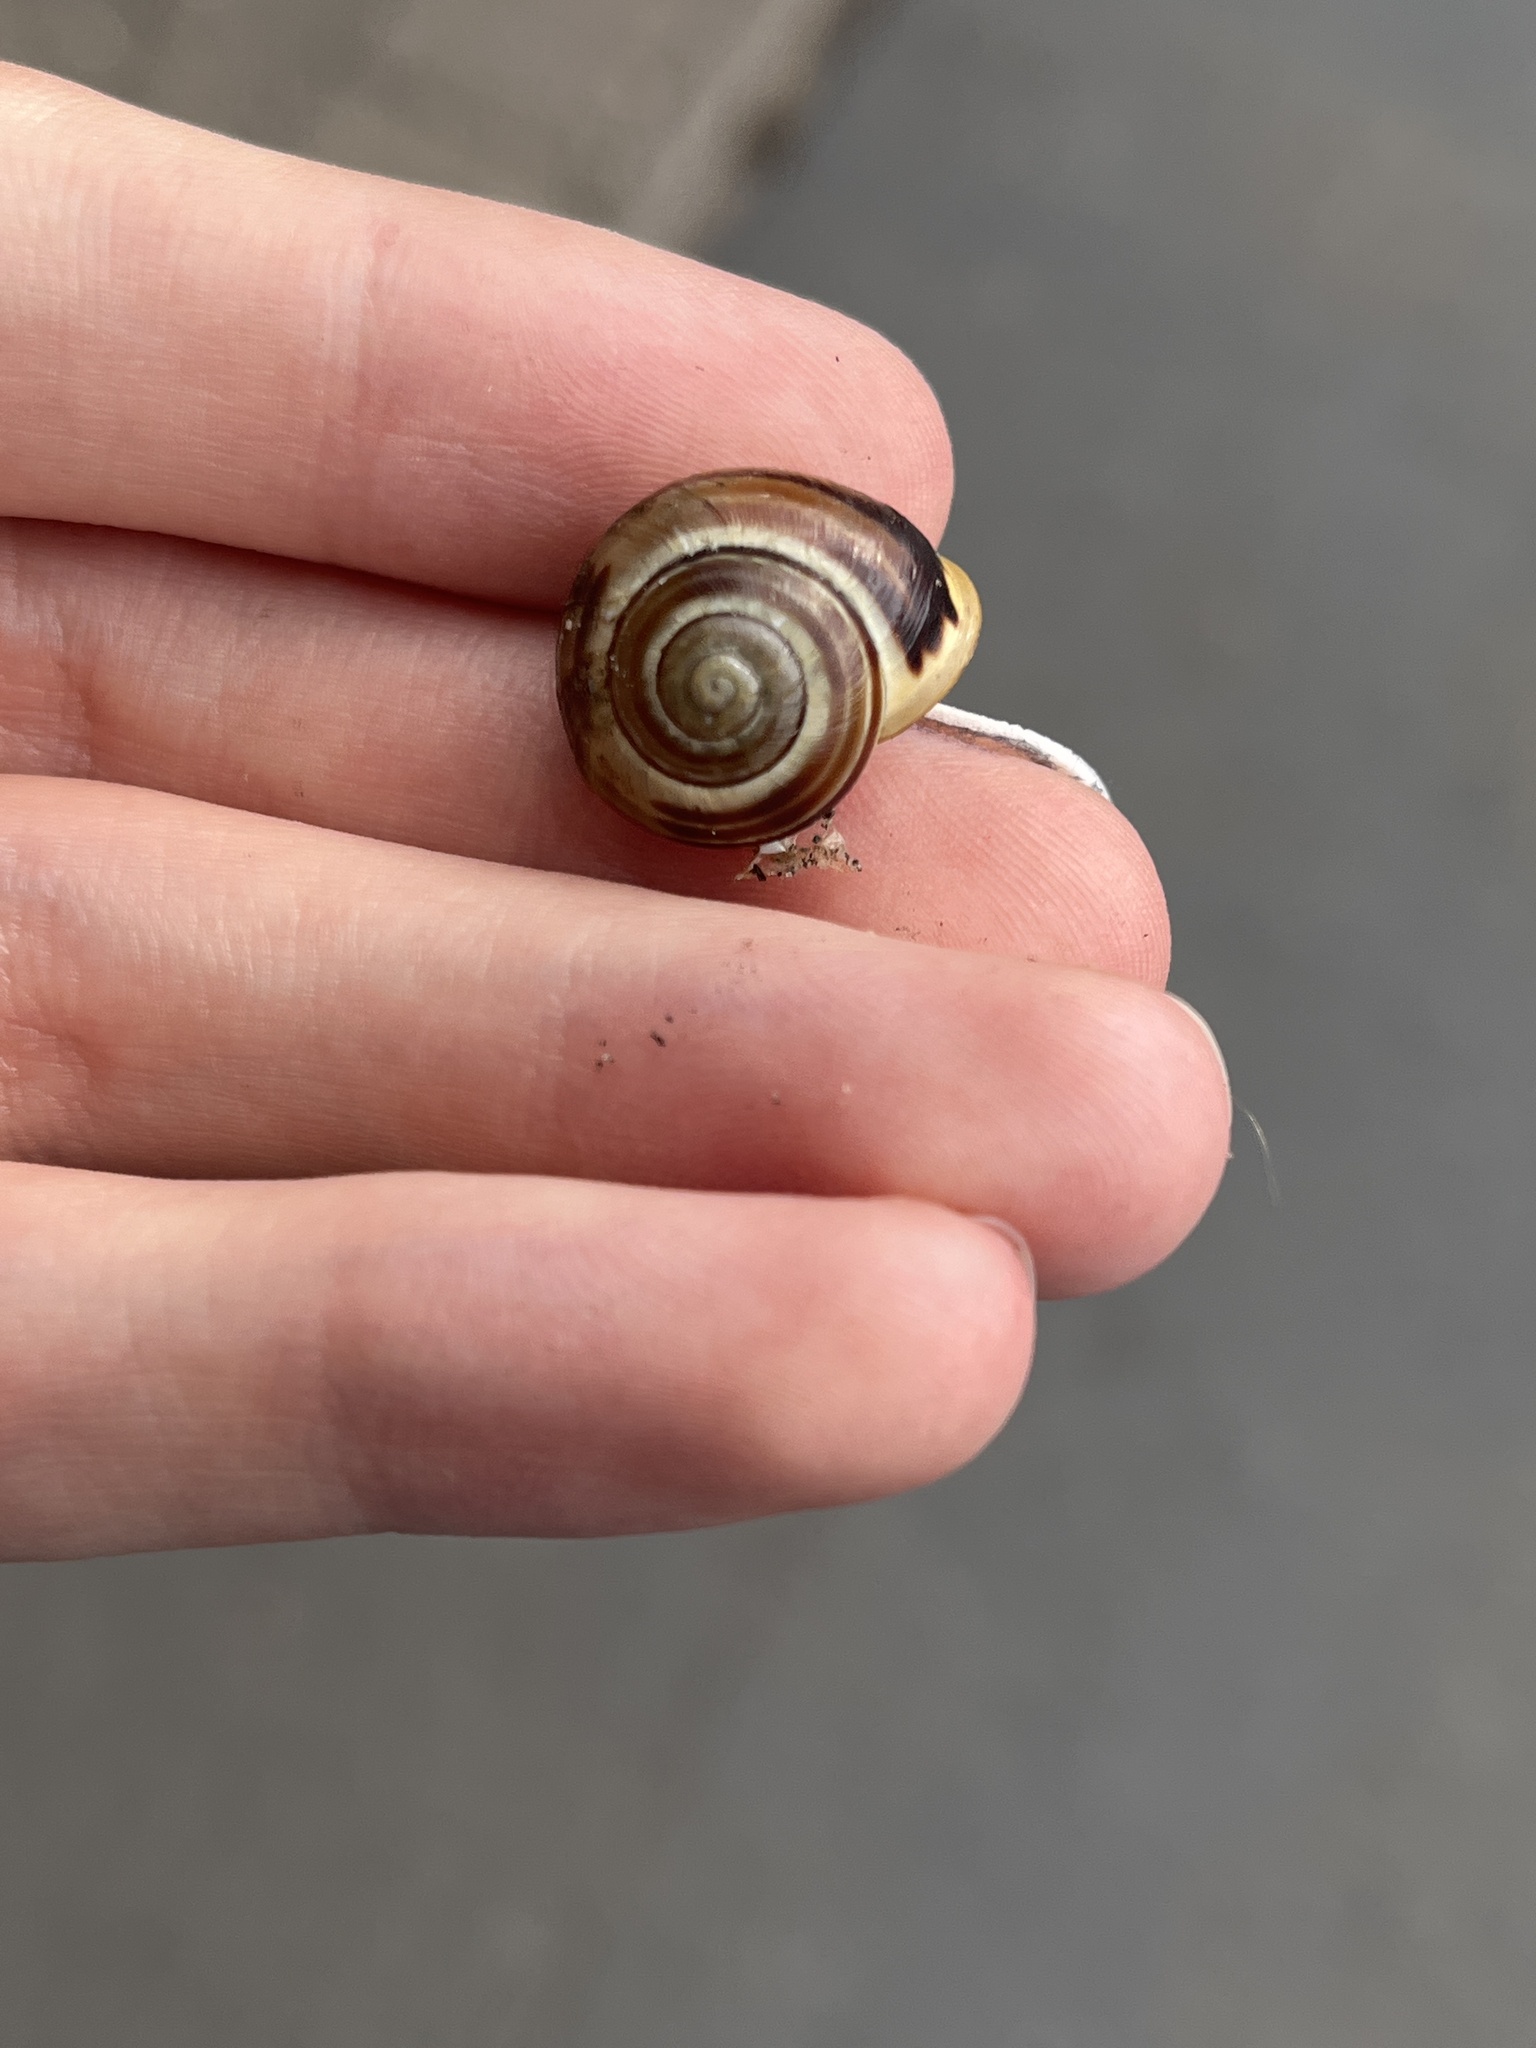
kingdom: Animalia
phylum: Mollusca
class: Gastropoda
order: Stylommatophora
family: Helicidae
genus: Cepaea
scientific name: Cepaea hortensis
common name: White-lip gardensnail
